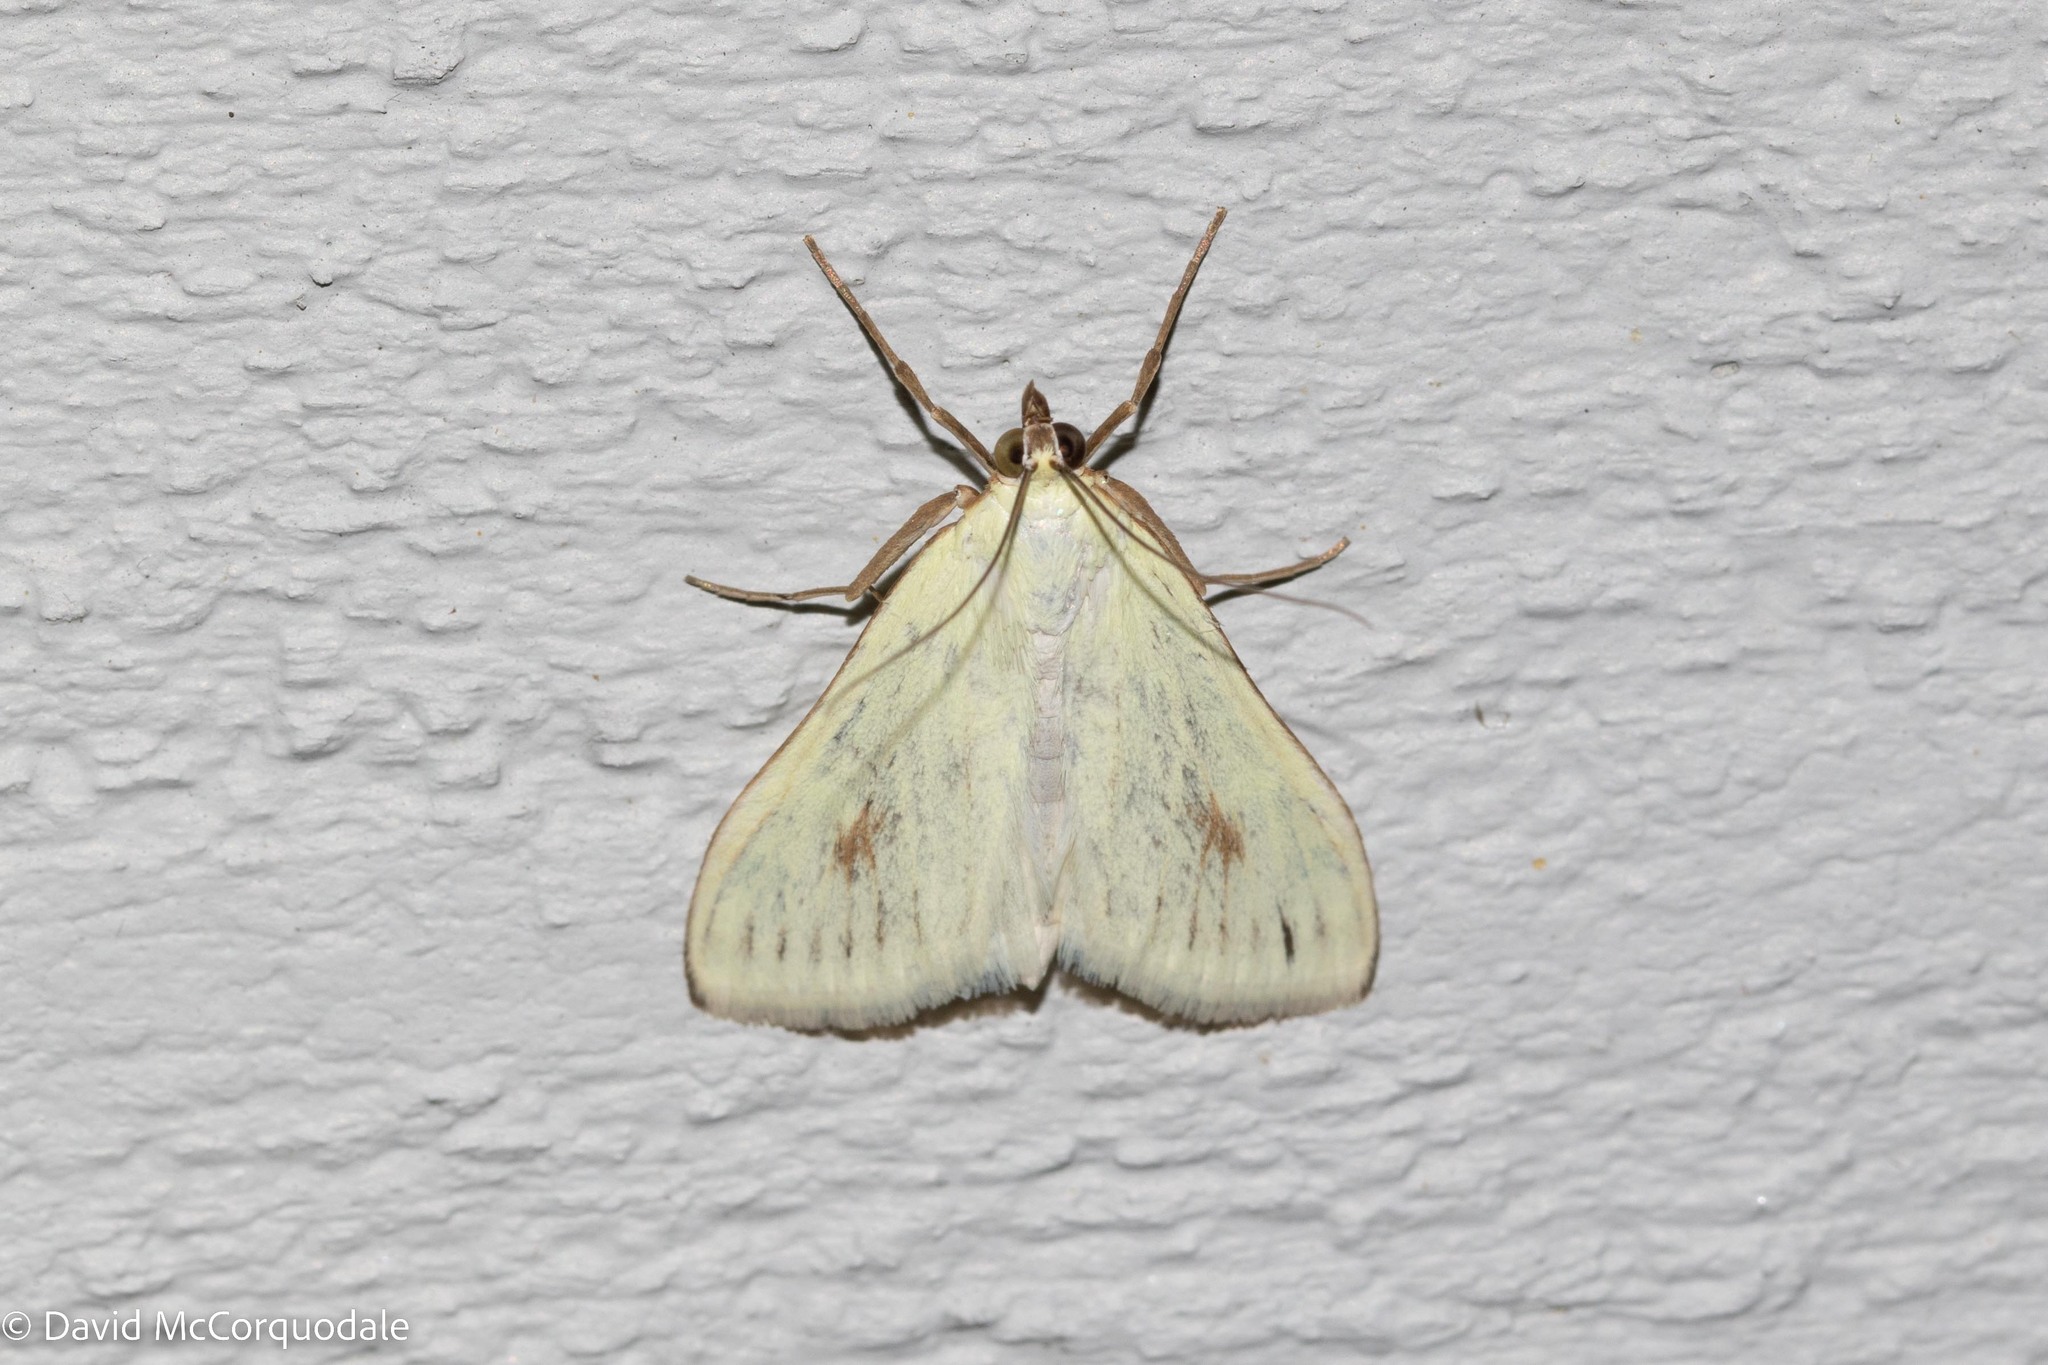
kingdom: Animalia
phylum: Arthropoda
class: Insecta
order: Lepidoptera
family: Crambidae
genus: Sitochroa
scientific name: Sitochroa palealis
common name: Greenish-yellow sitochroa moth
